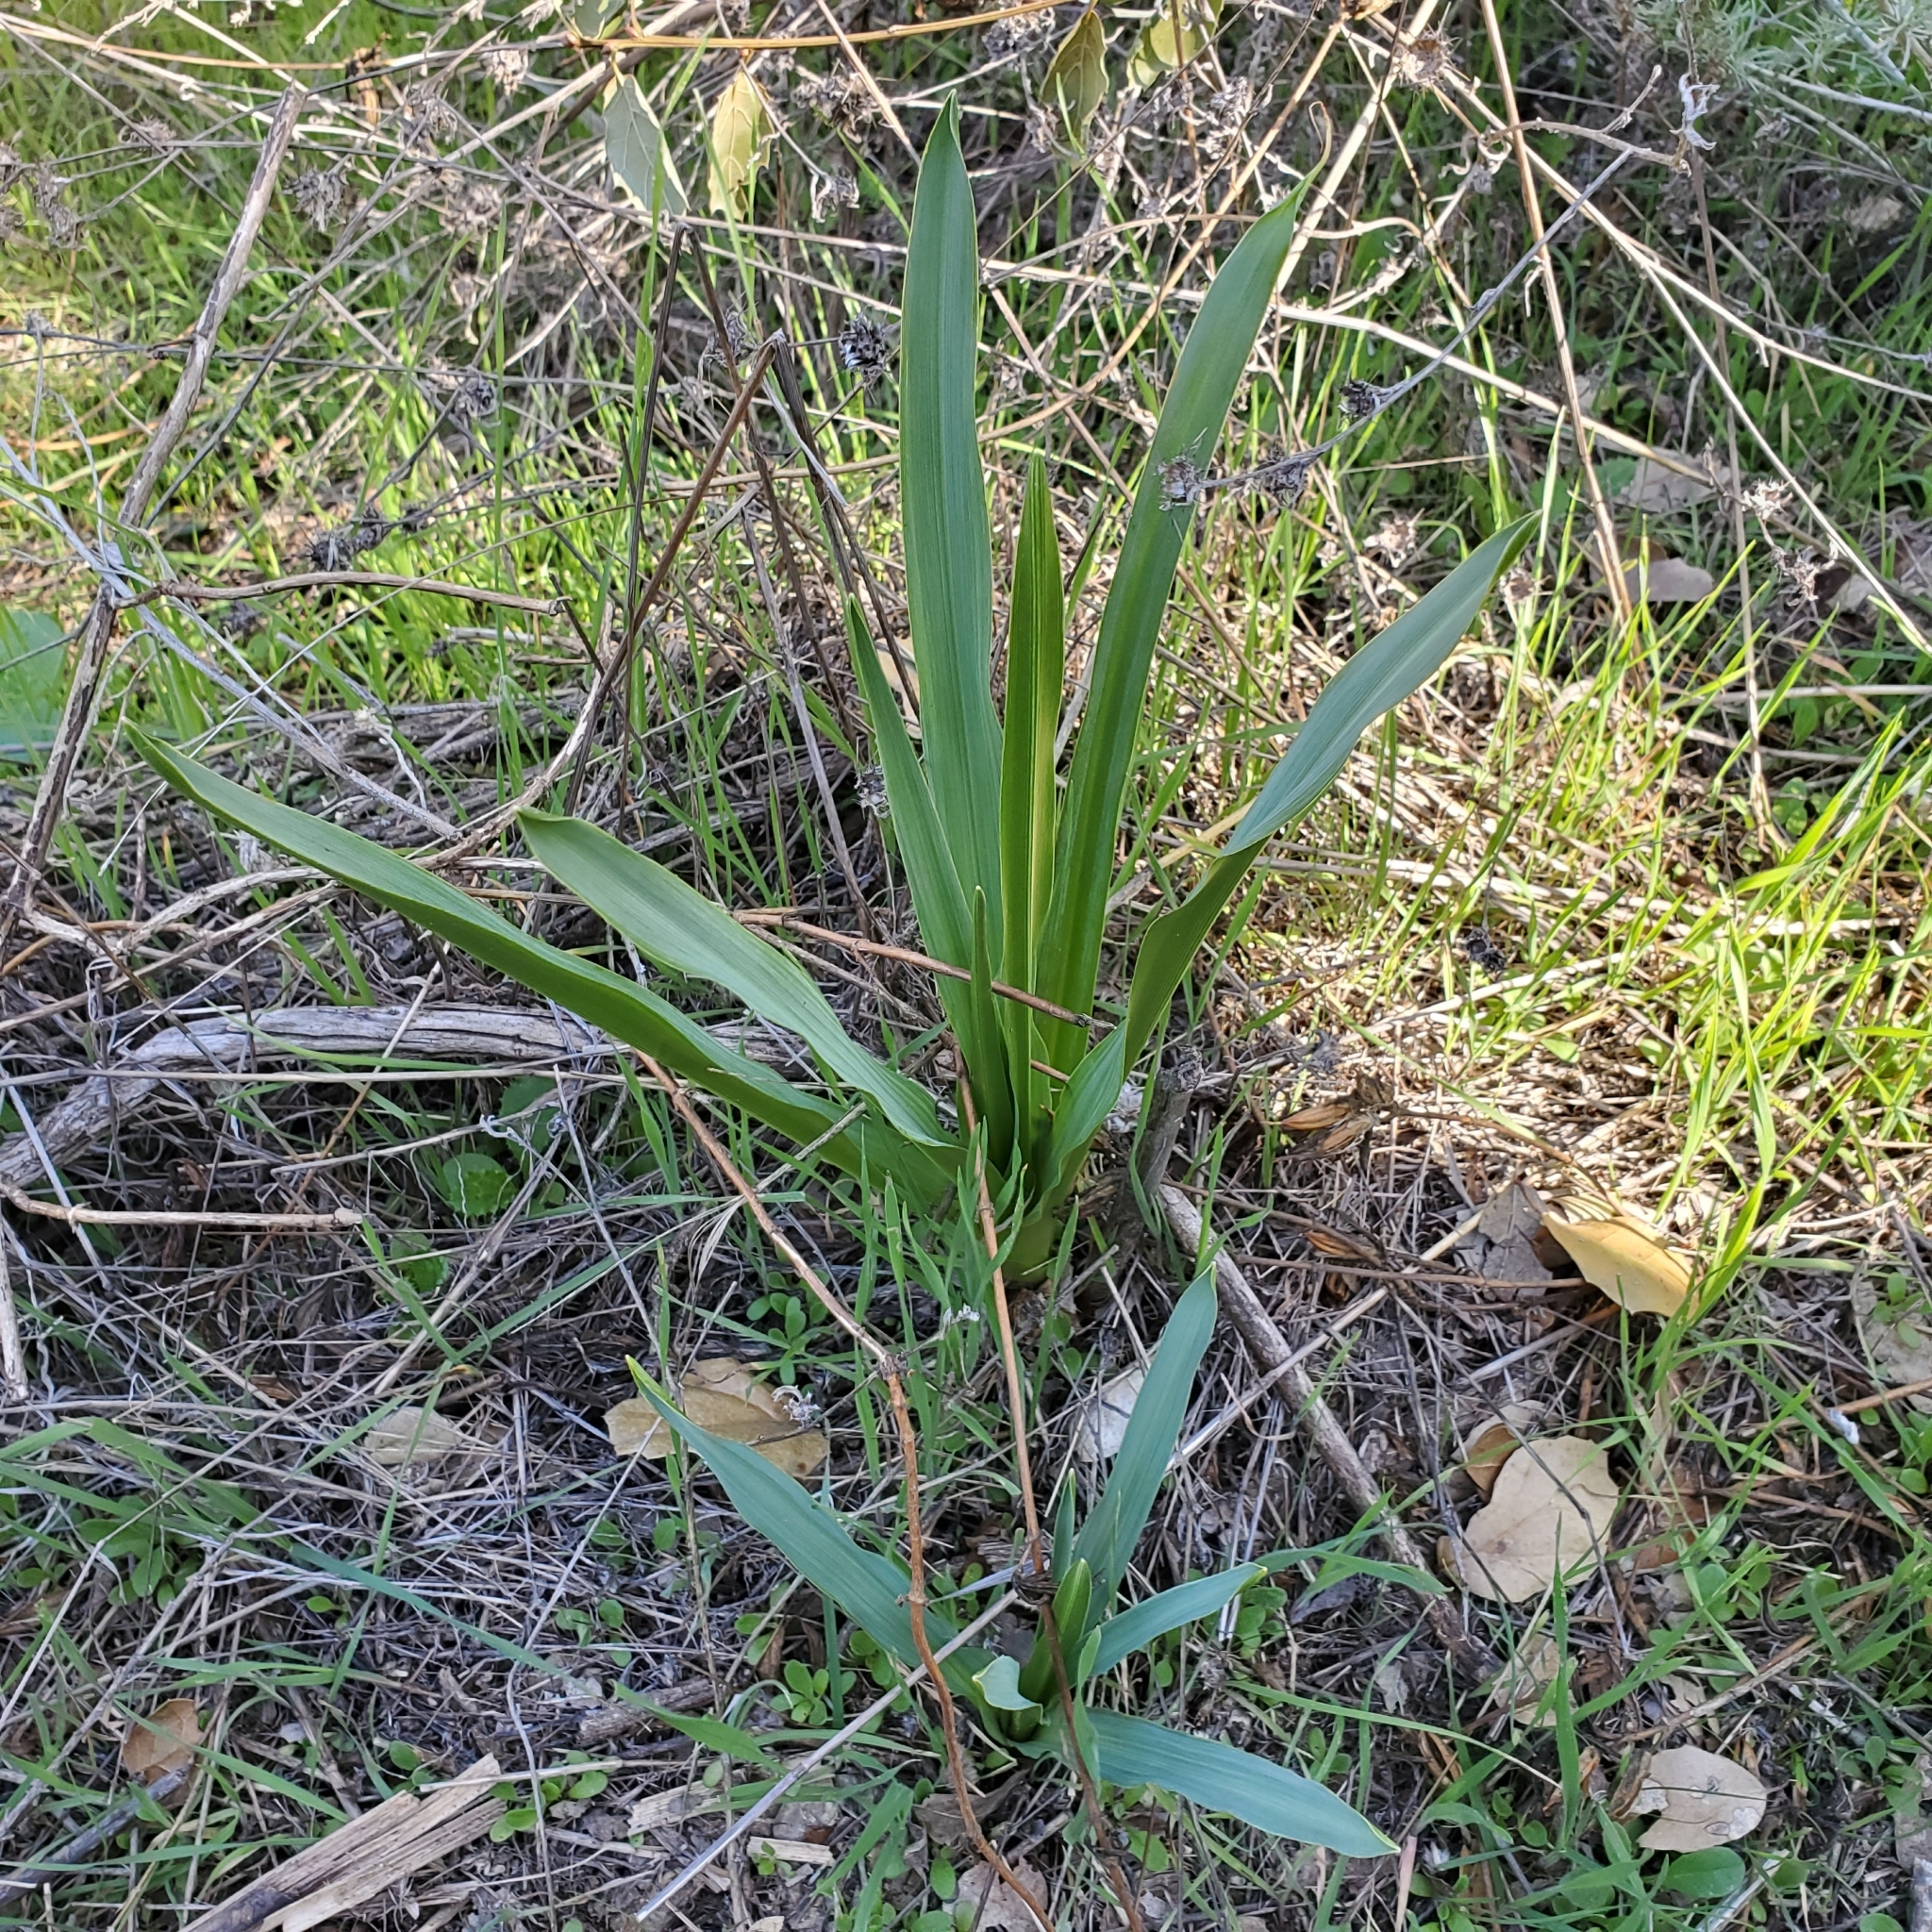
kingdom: Plantae
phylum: Tracheophyta
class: Liliopsida
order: Asparagales
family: Asparagaceae
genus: Chlorogalum
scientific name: Chlorogalum pomeridianum
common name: Amole
